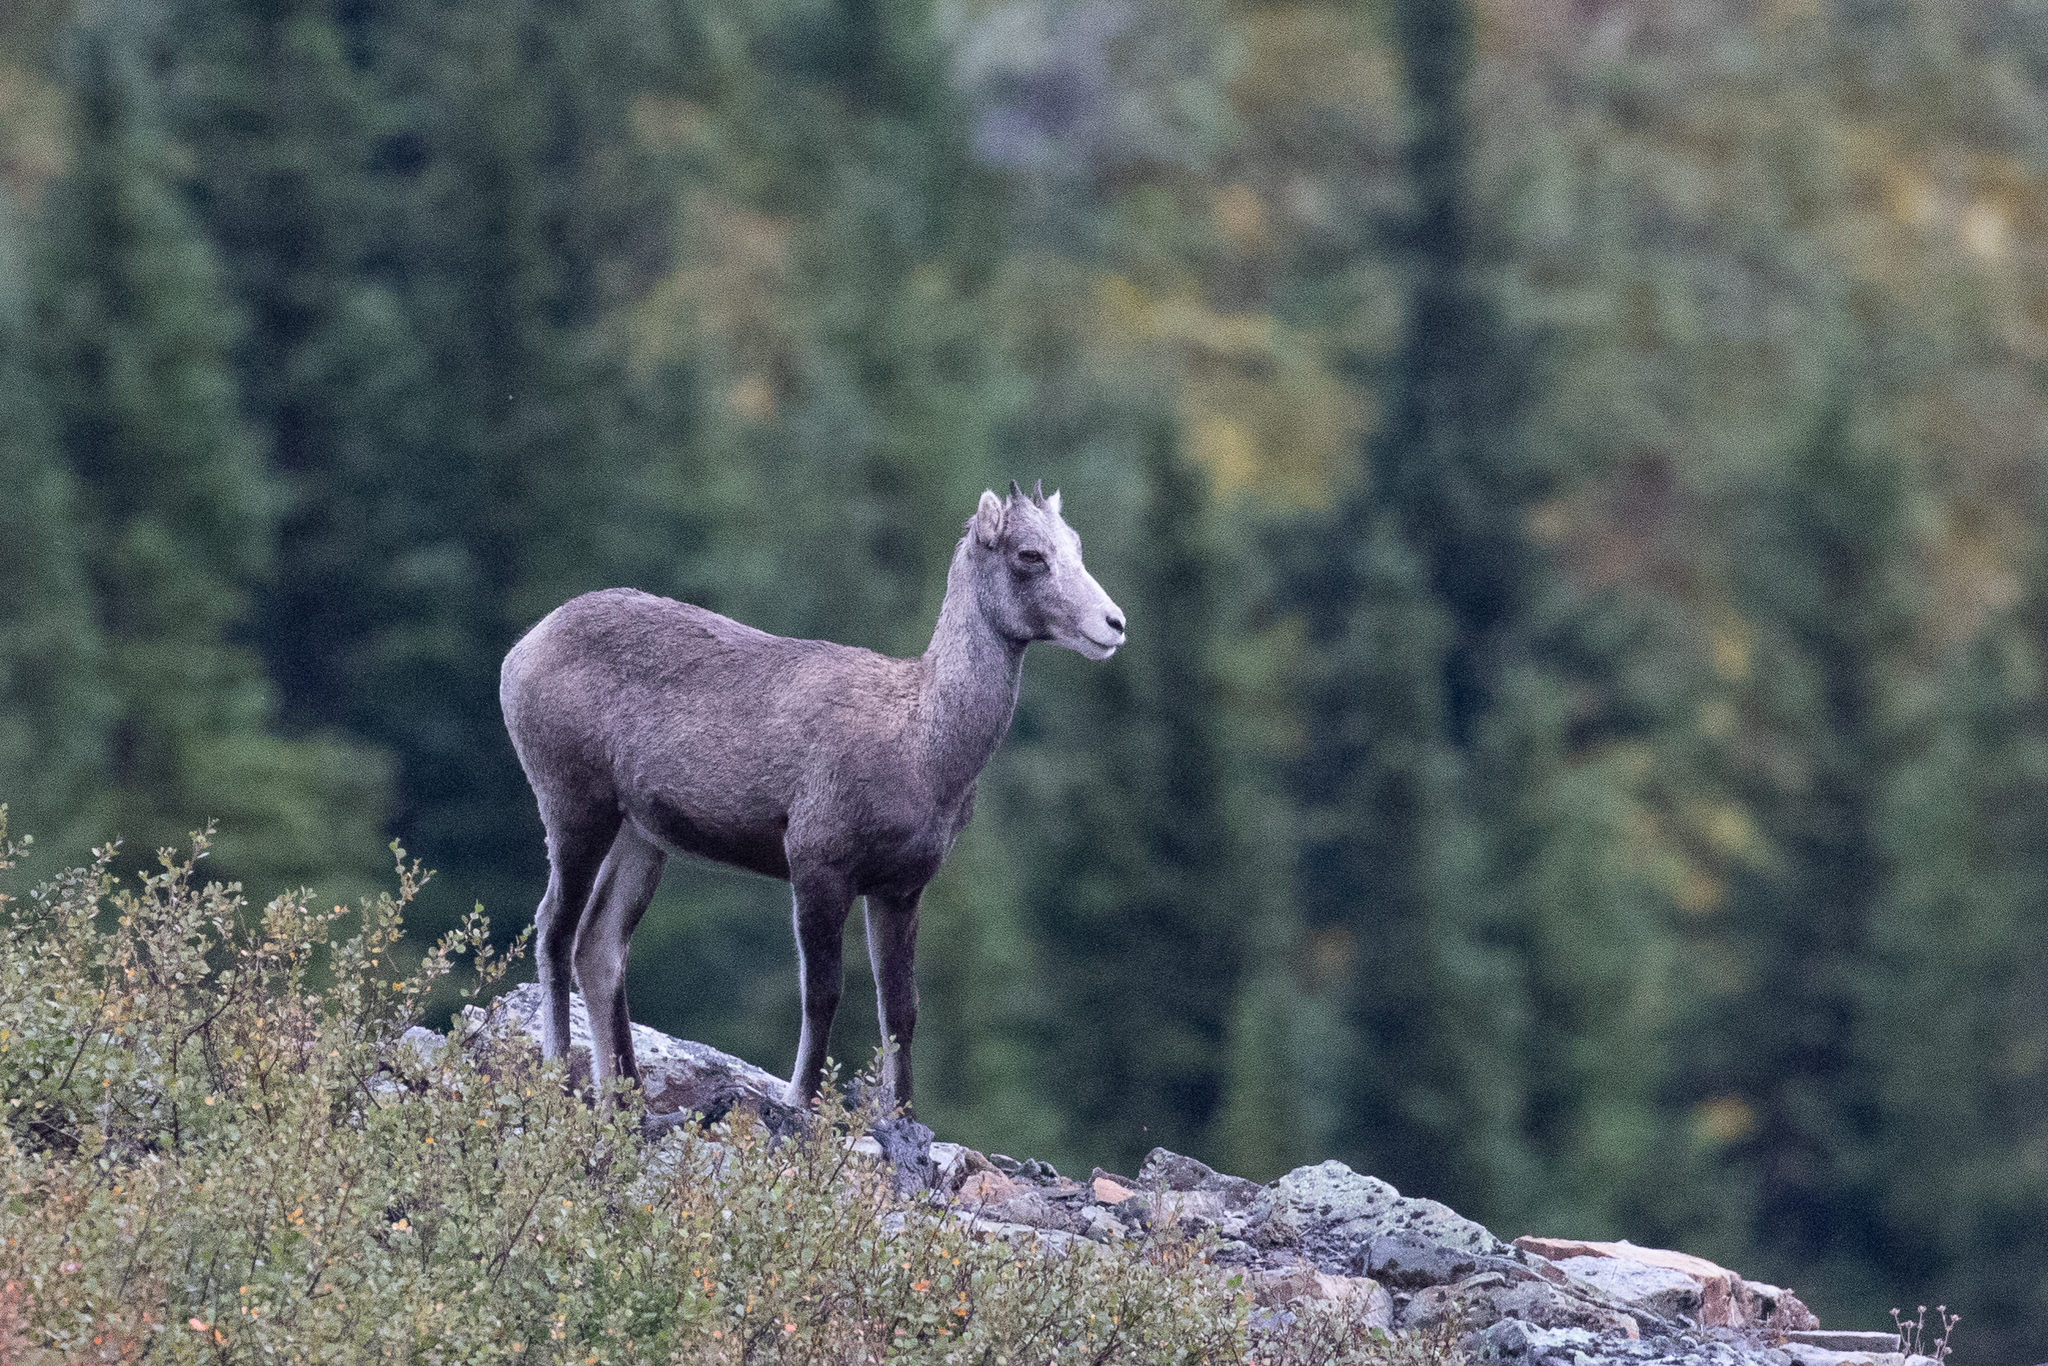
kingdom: Animalia
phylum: Chordata
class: Mammalia
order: Artiodactyla
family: Bovidae
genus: Ovis
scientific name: Ovis dalli
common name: Dall's sheep
